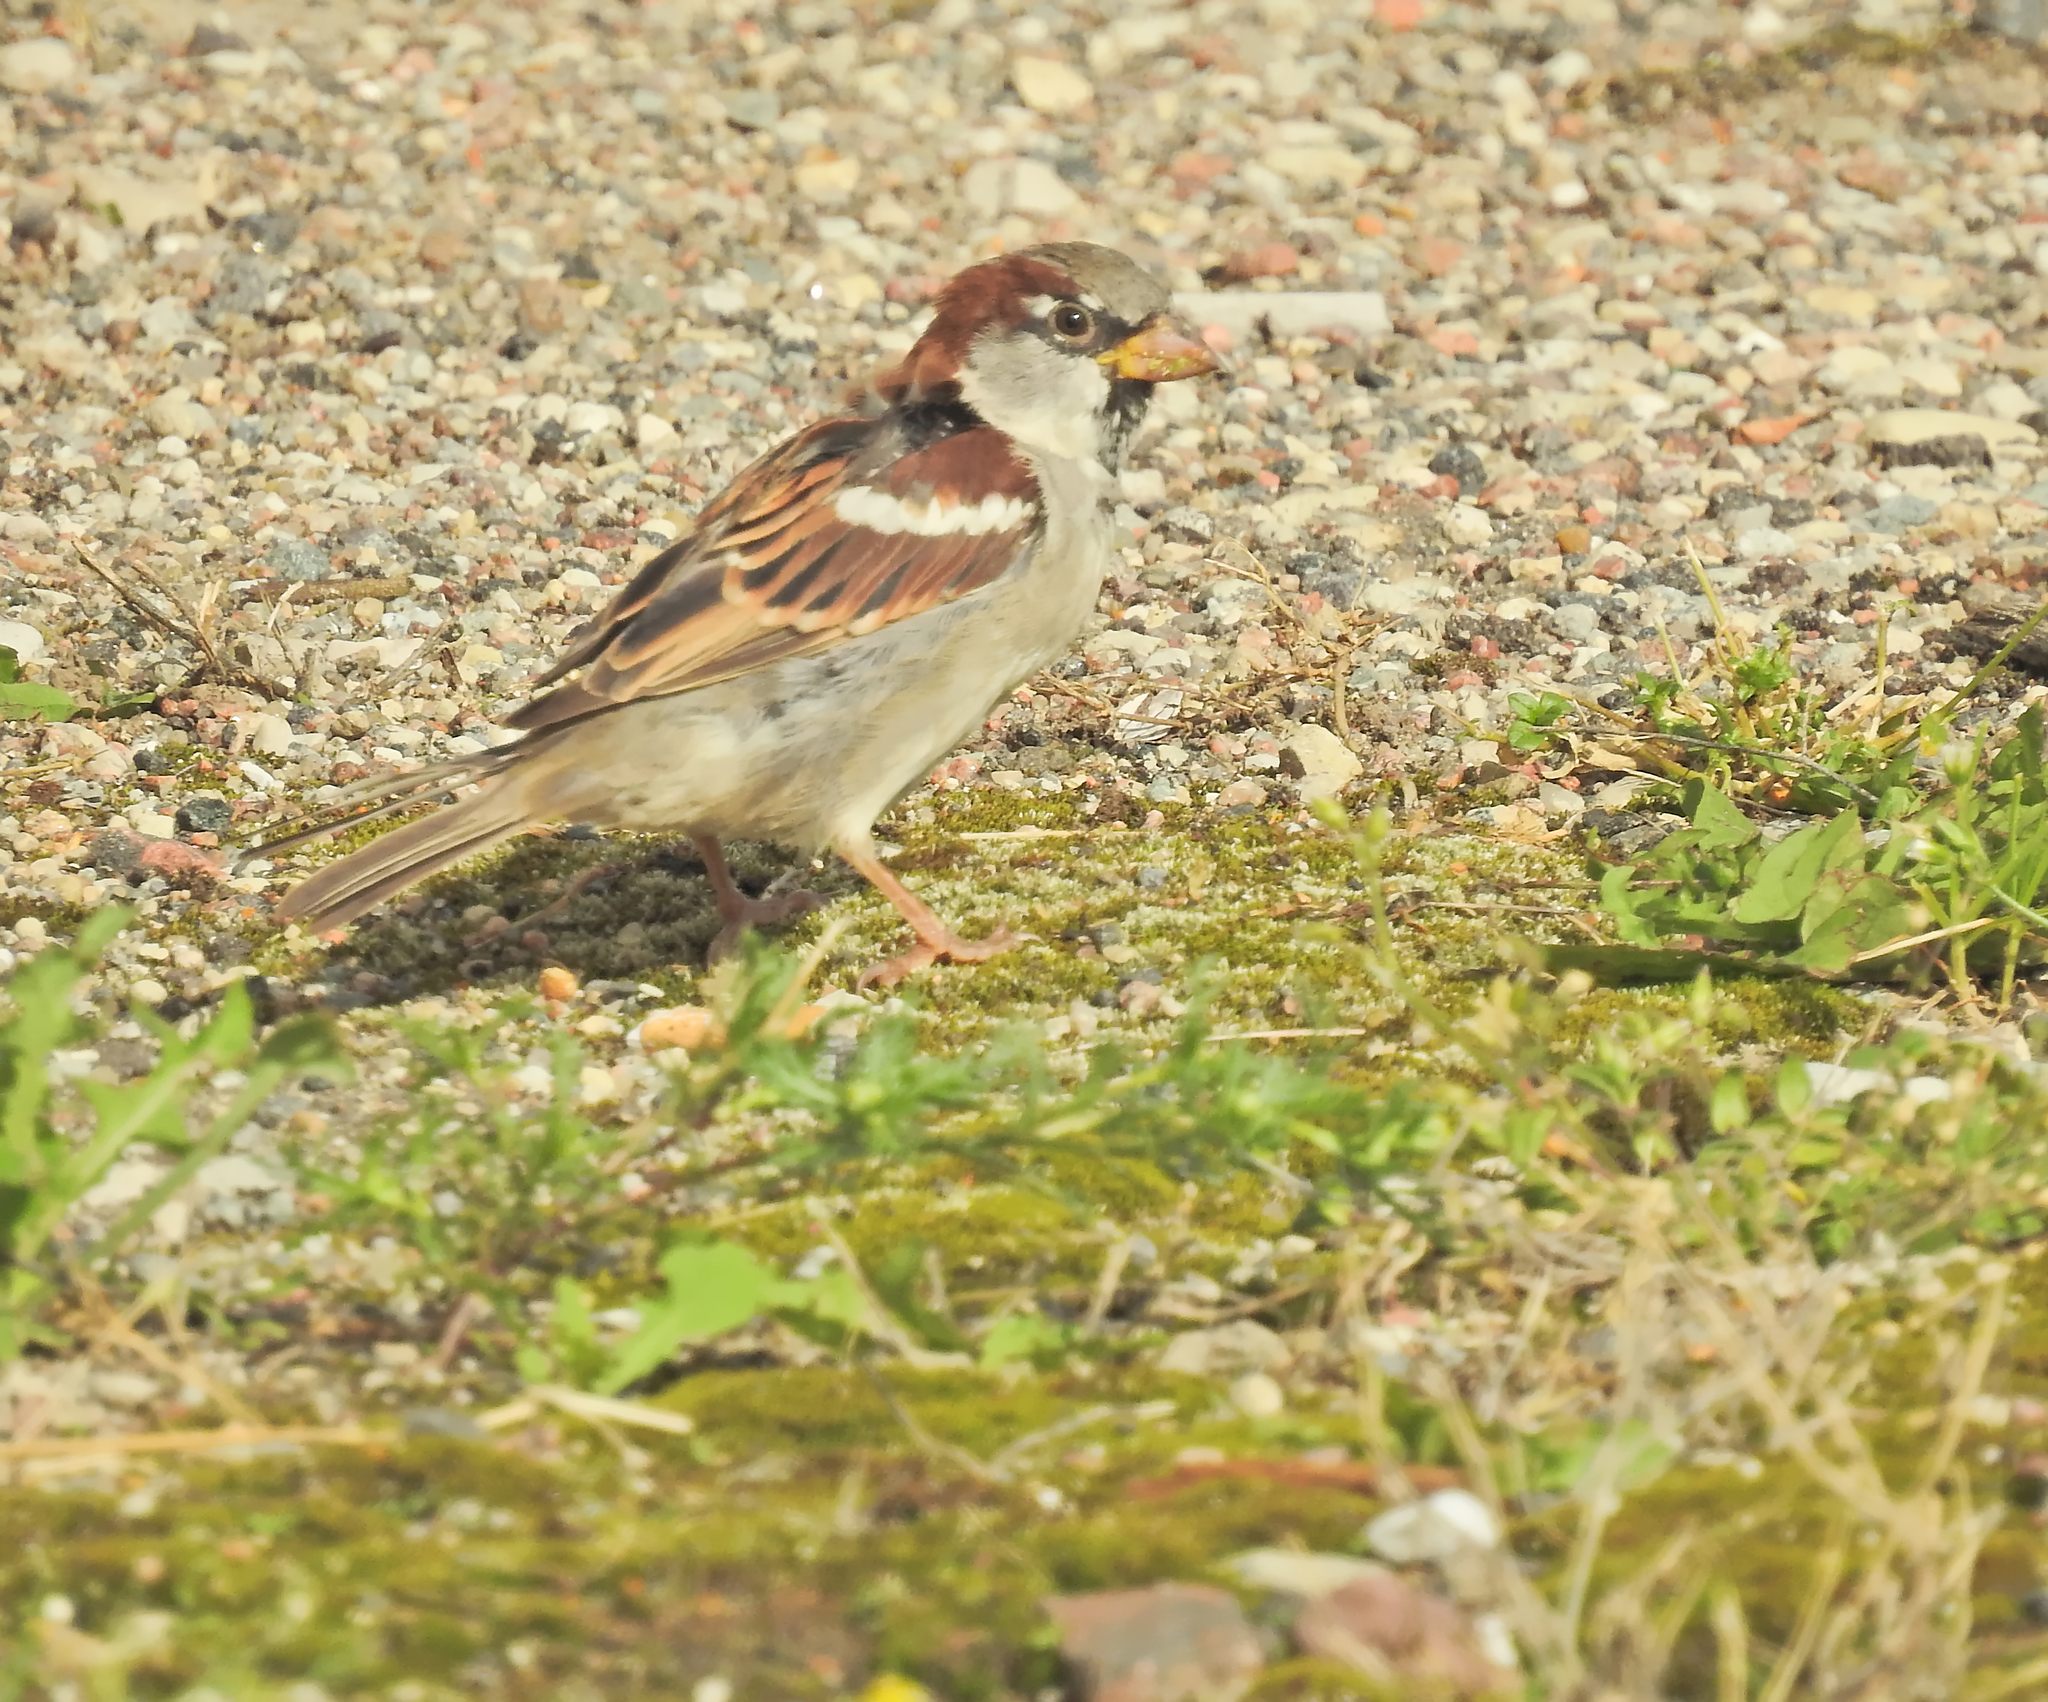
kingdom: Animalia
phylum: Chordata
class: Aves
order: Passeriformes
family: Passeridae
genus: Passer
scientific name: Passer domesticus
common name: House sparrow
